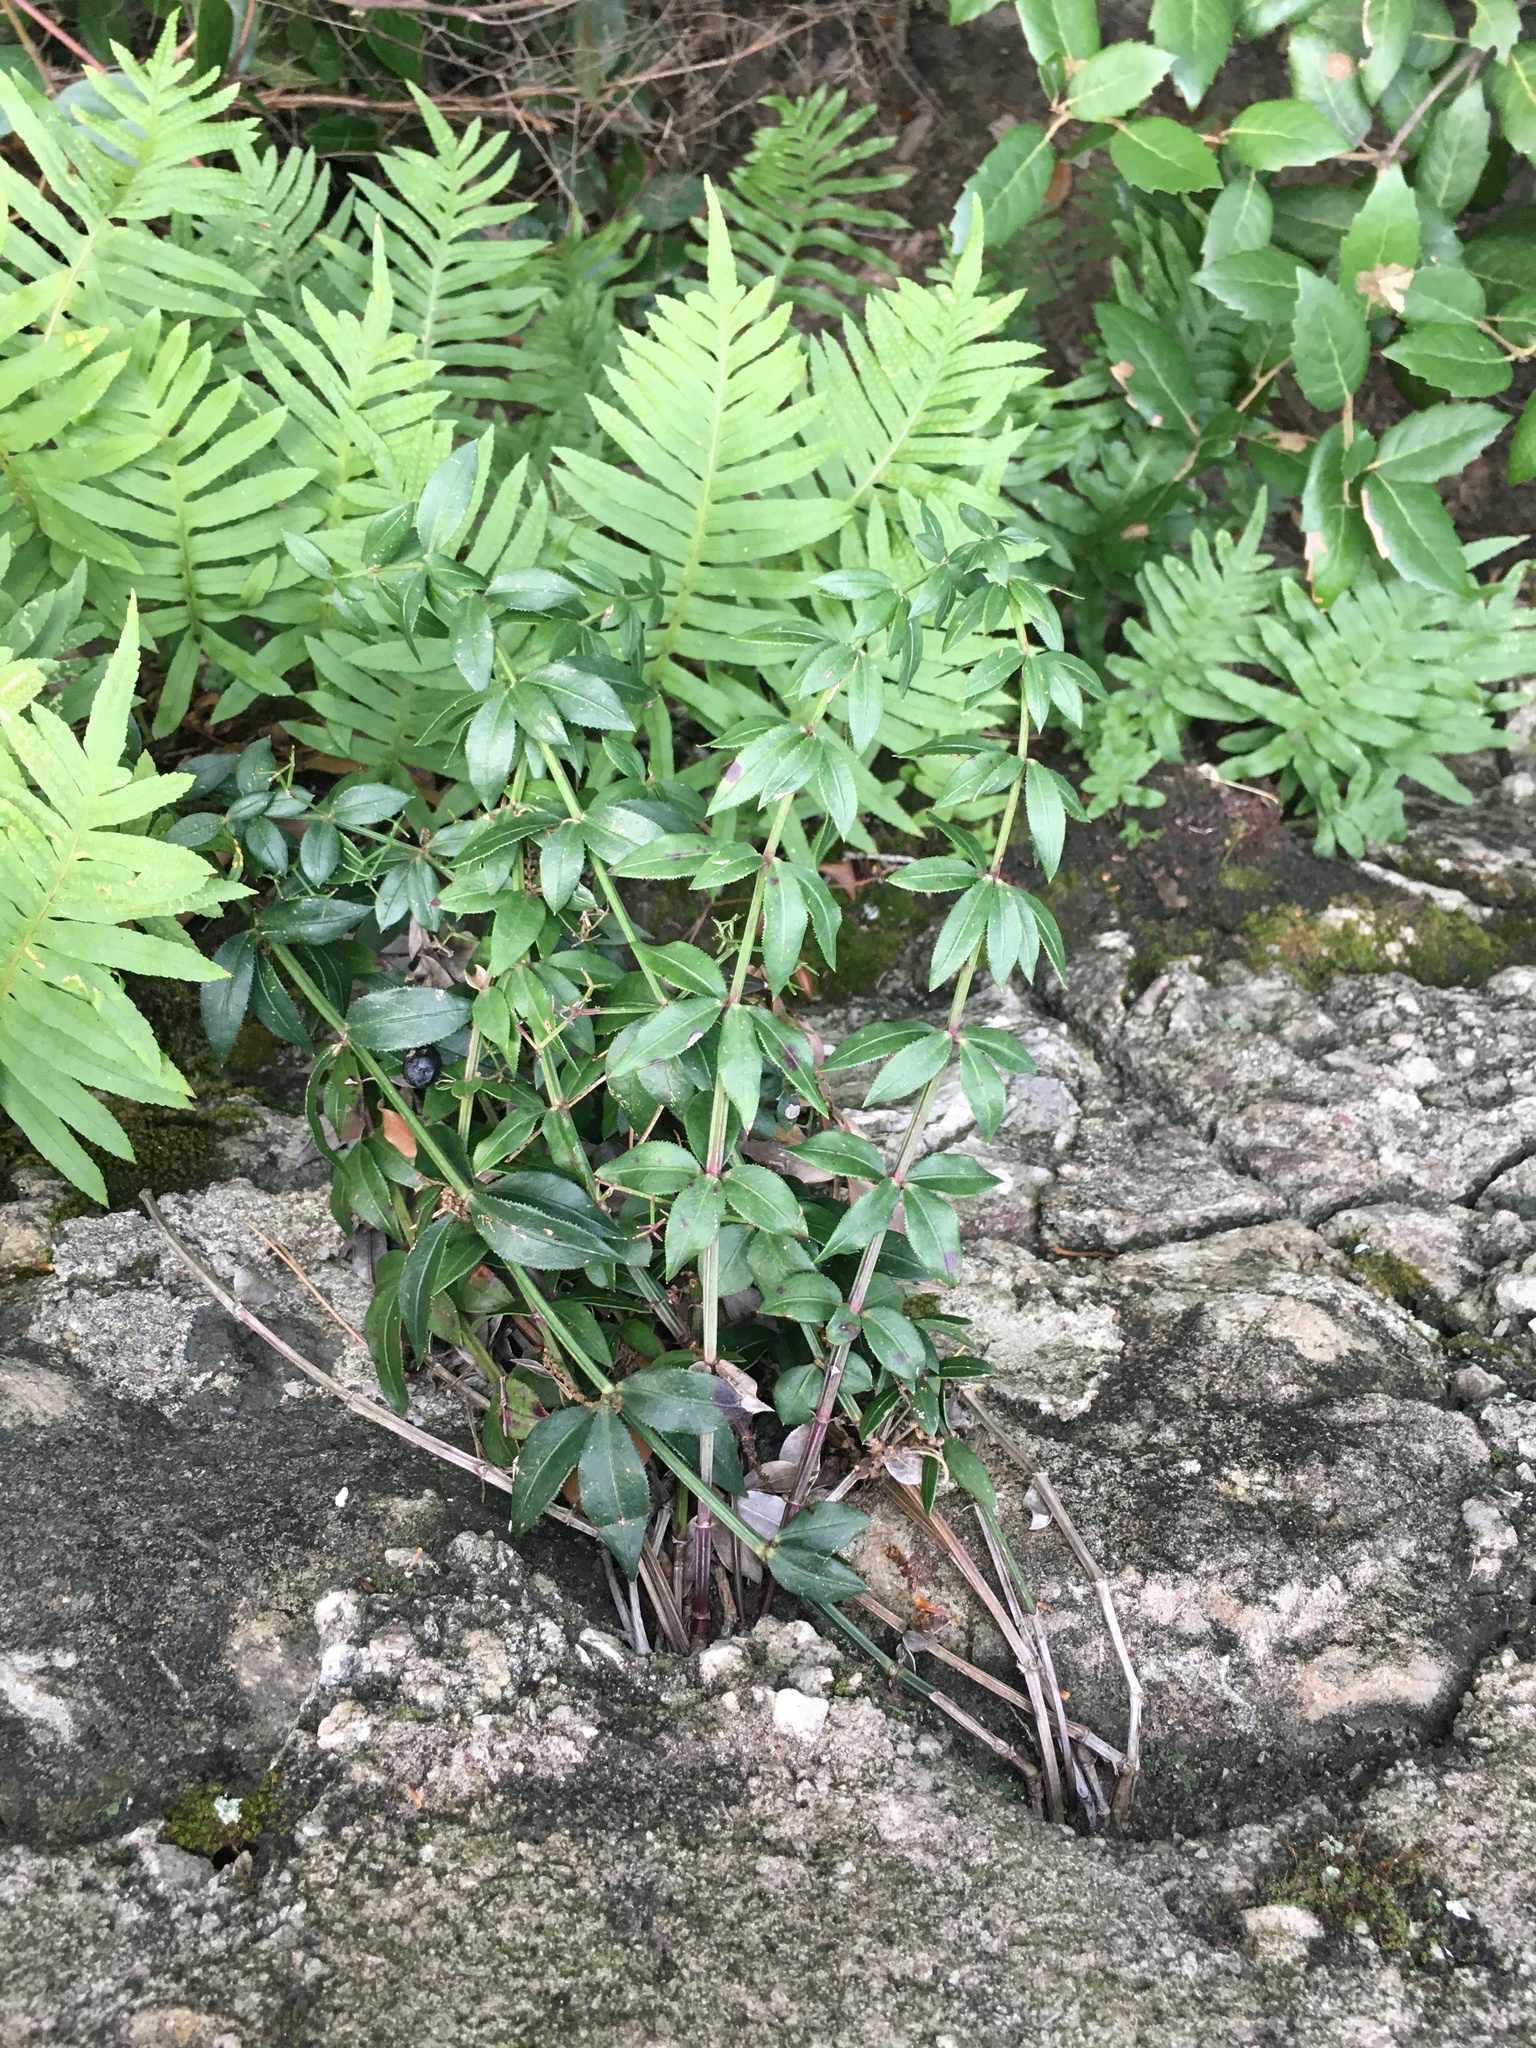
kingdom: Plantae
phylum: Tracheophyta
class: Magnoliopsida
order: Gentianales
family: Rubiaceae
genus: Rubia
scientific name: Rubia peregrina
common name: Wild madder
